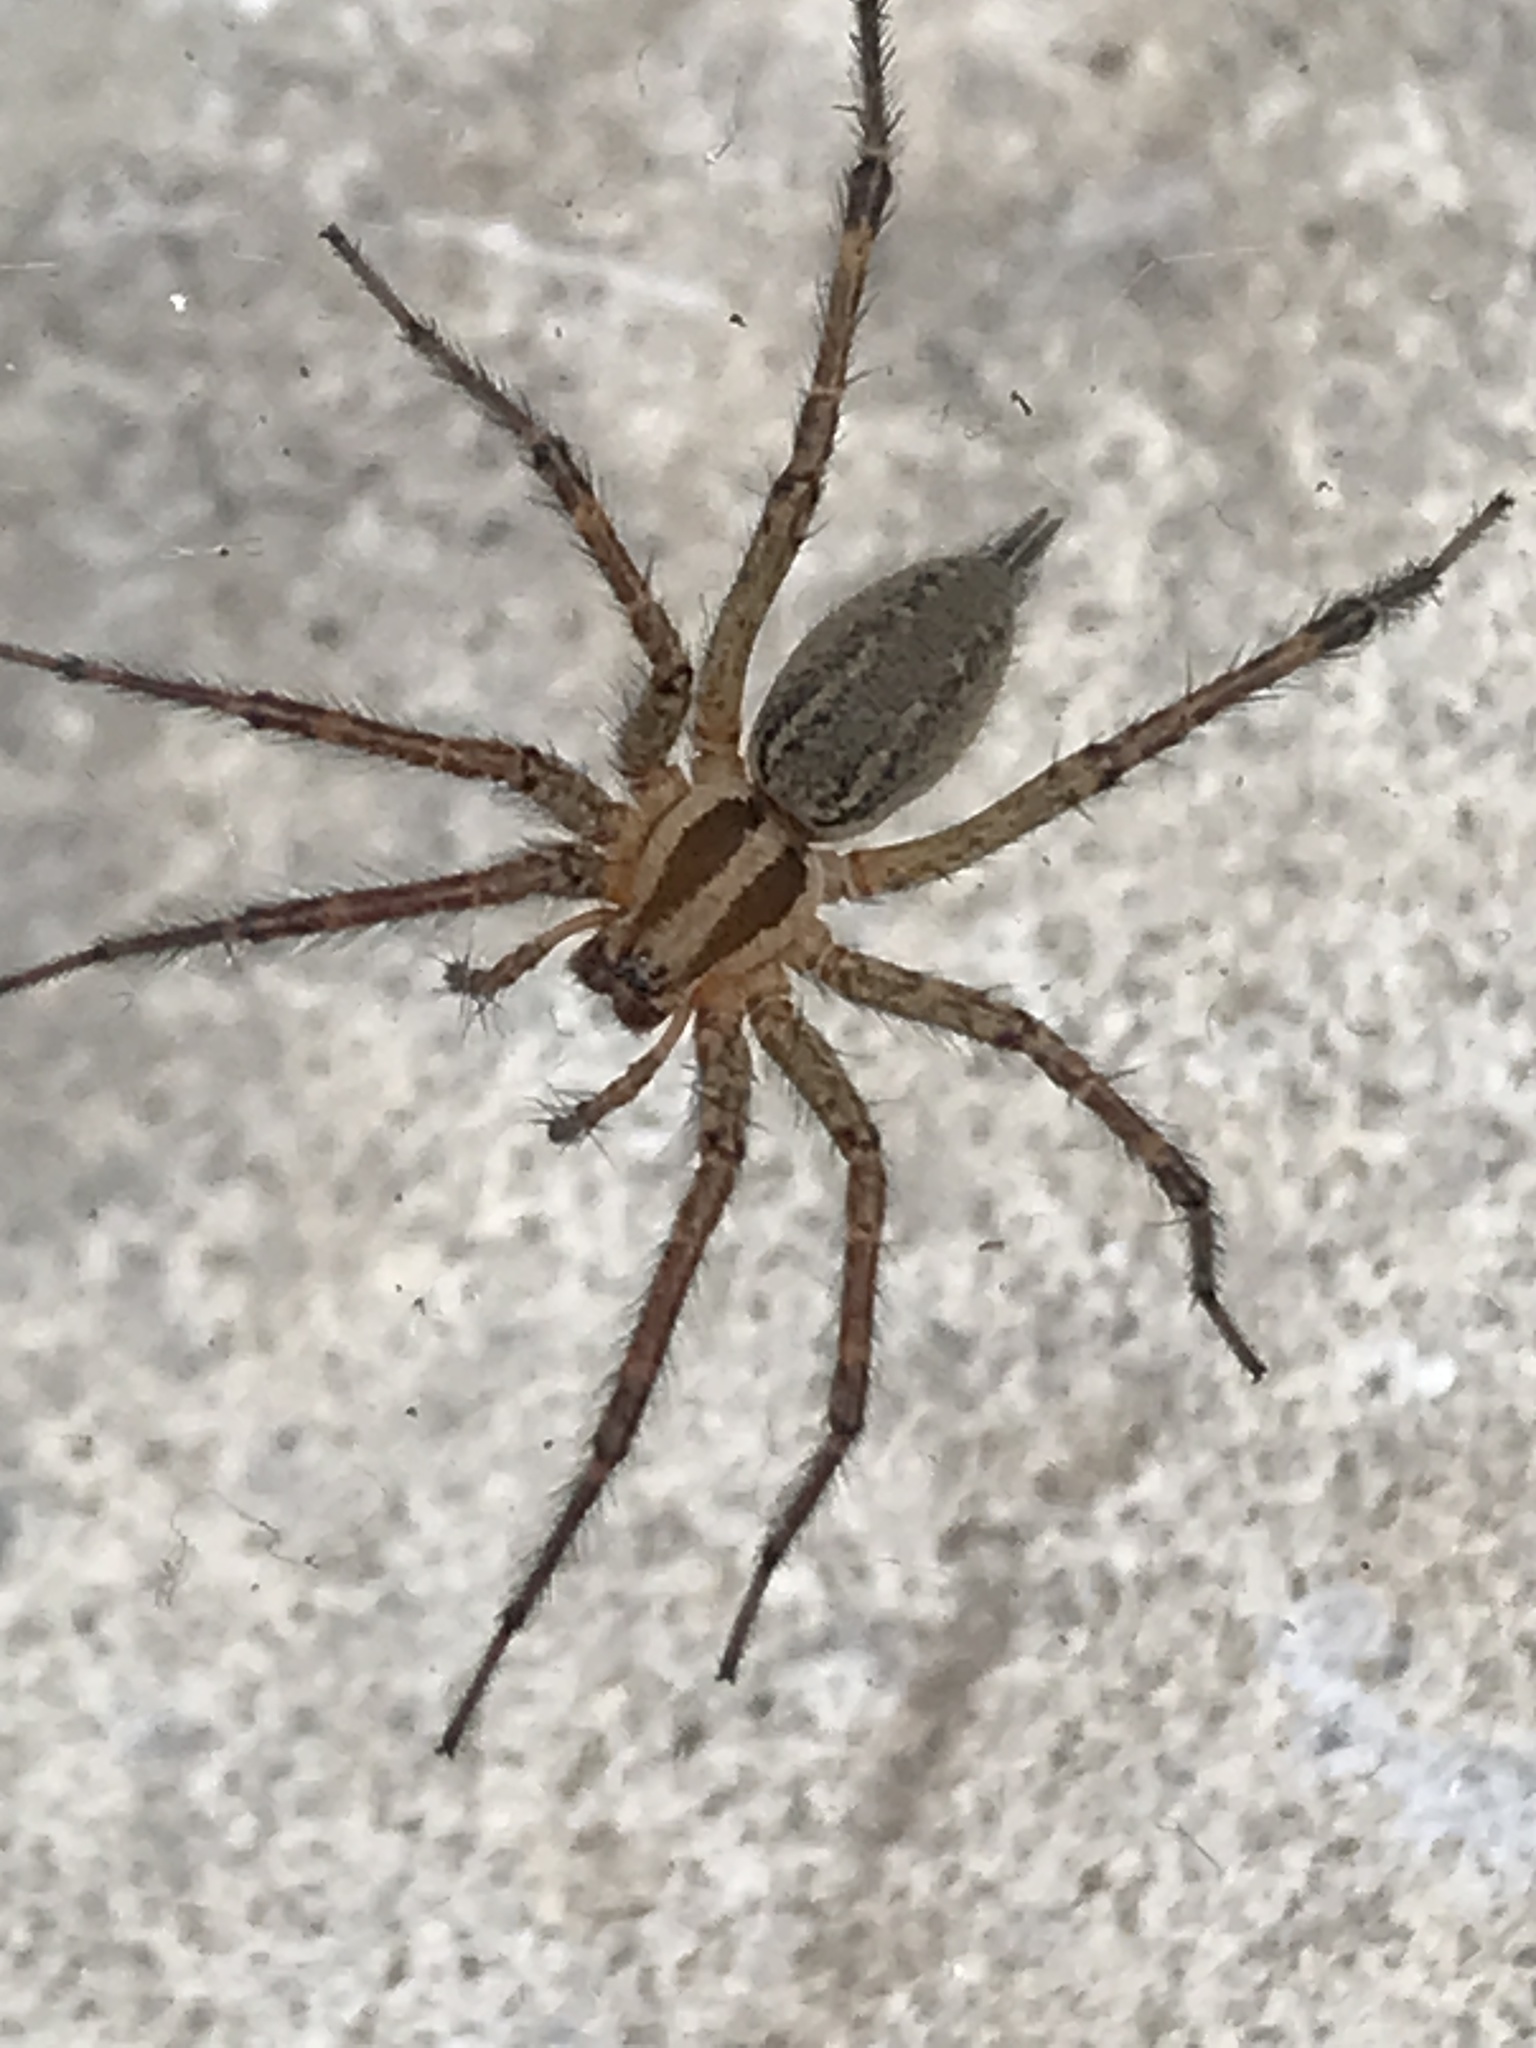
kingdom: Animalia
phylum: Arthropoda
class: Arachnida
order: Araneae
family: Agelenidae
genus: Agelenopsis
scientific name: Agelenopsis
